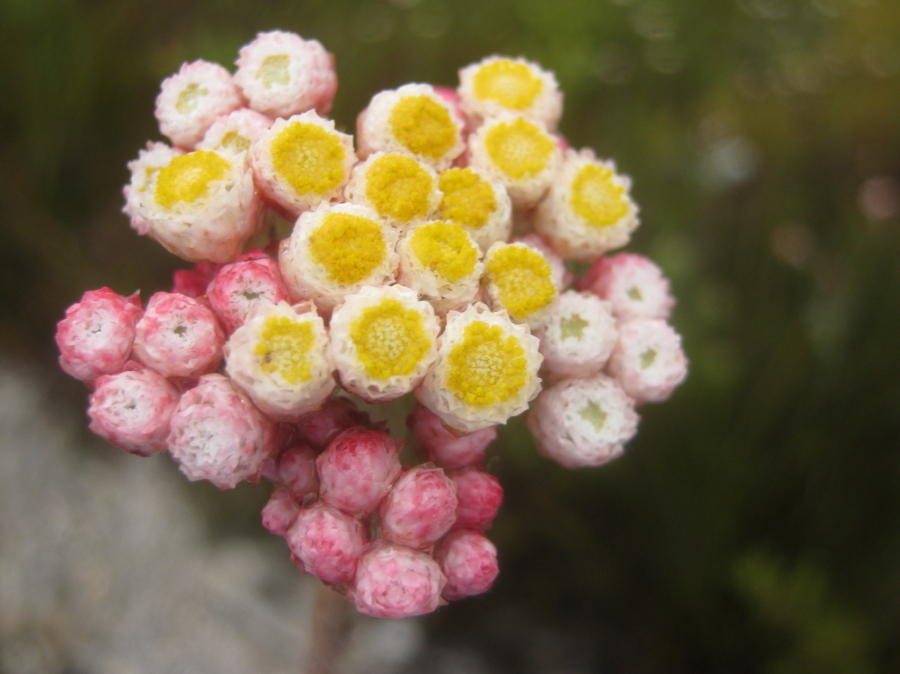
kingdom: Plantae
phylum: Tracheophyta
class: Magnoliopsida
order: Asterales
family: Asteraceae
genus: Helichrysum
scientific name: Helichrysum felinum
